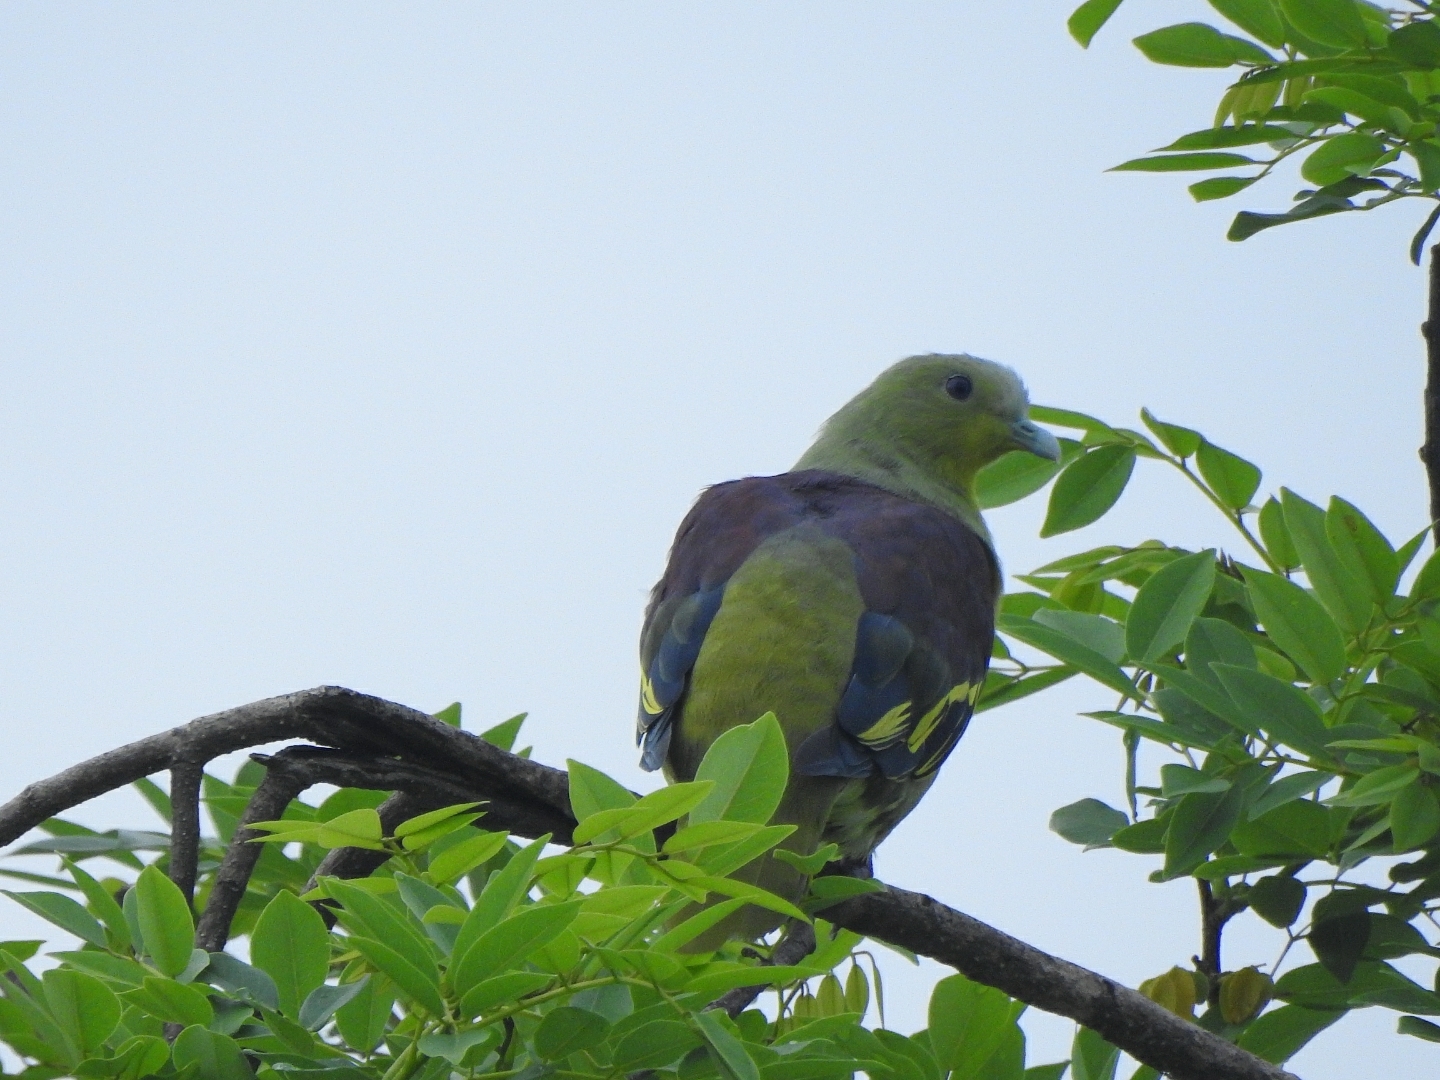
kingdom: Animalia
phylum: Chordata
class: Aves
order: Columbiformes
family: Columbidae
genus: Treron
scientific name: Treron affinis
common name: Grey-fronted green pigeon
